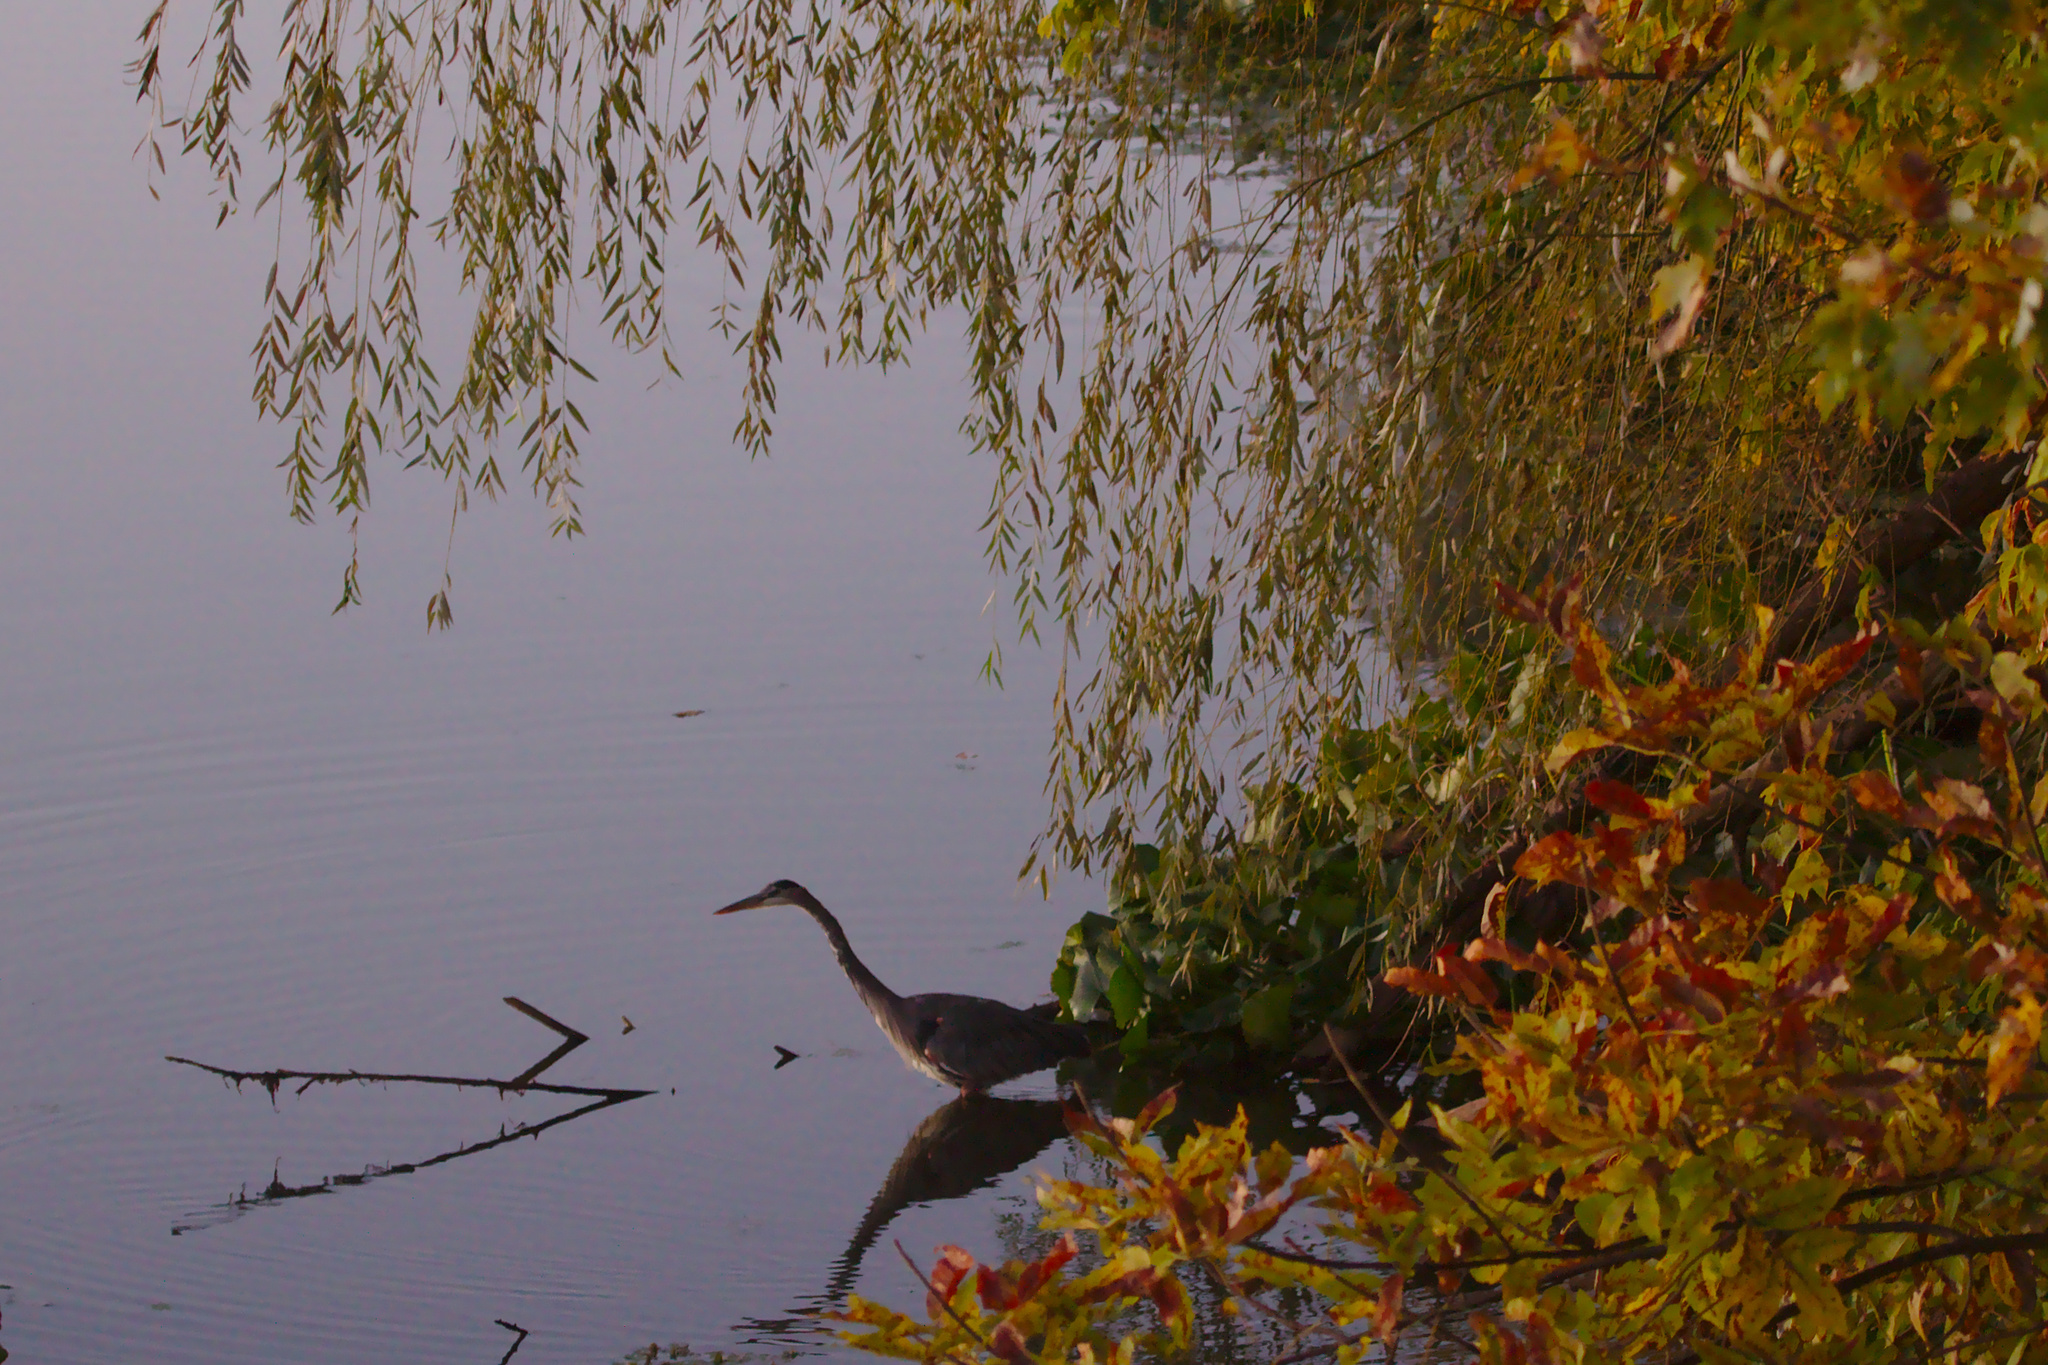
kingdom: Animalia
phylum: Chordata
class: Aves
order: Pelecaniformes
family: Ardeidae
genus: Ardea
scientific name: Ardea herodias
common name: Great blue heron
